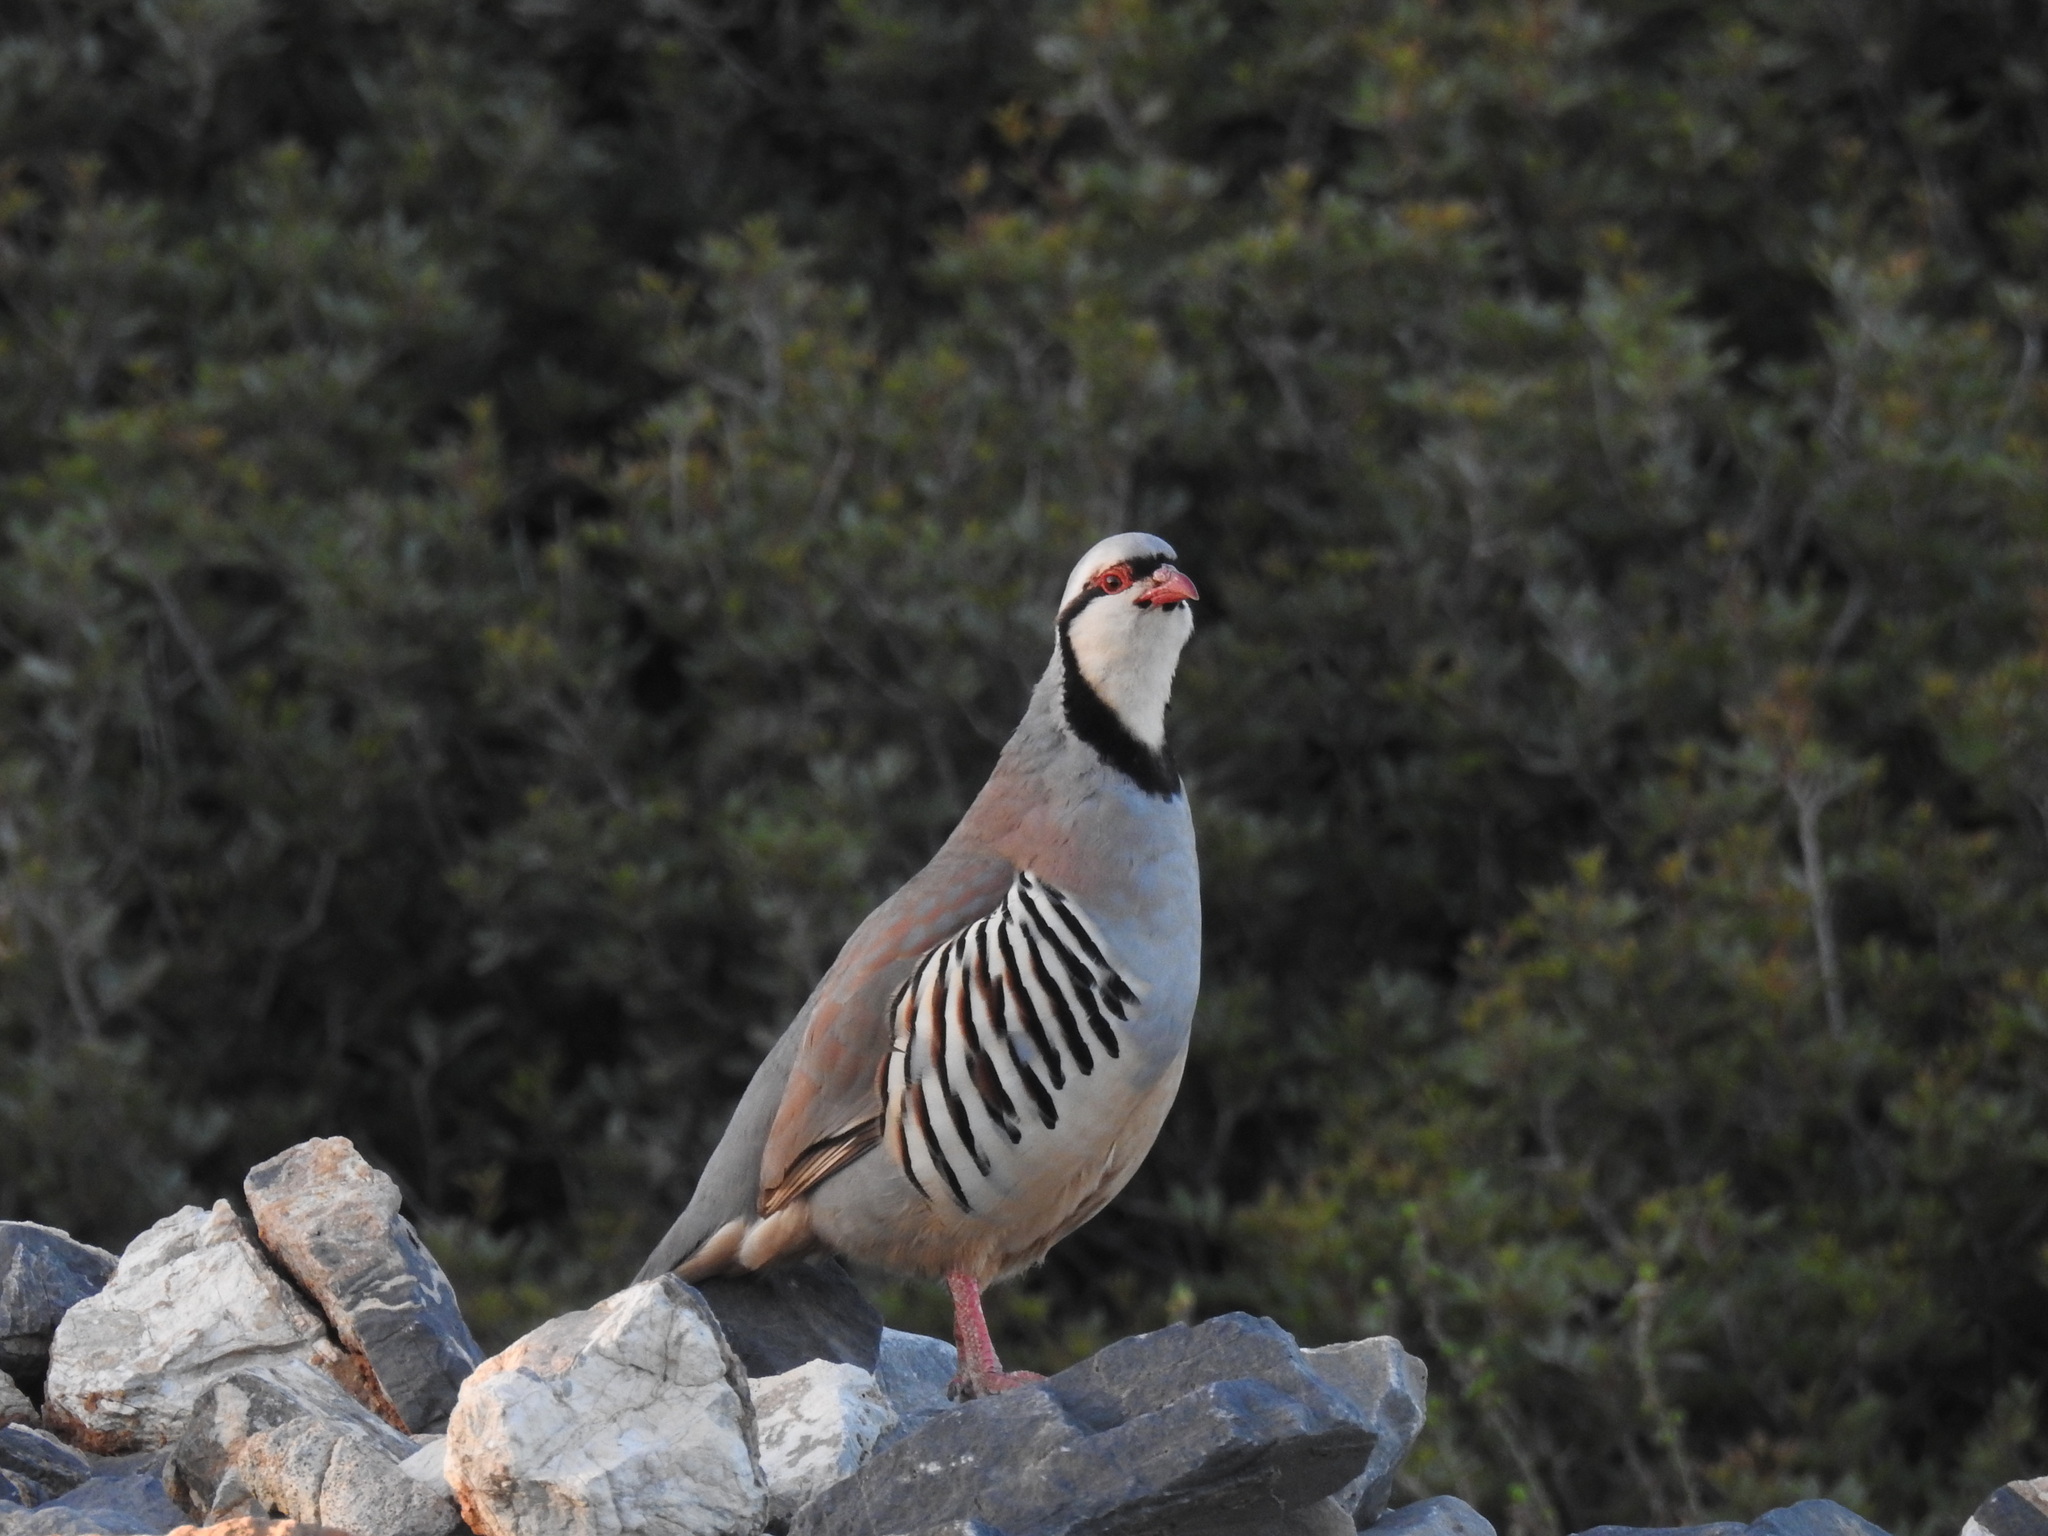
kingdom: Animalia
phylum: Chordata
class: Aves
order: Galliformes
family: Phasianidae
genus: Alectoris
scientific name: Alectoris chukar
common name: Chukar
